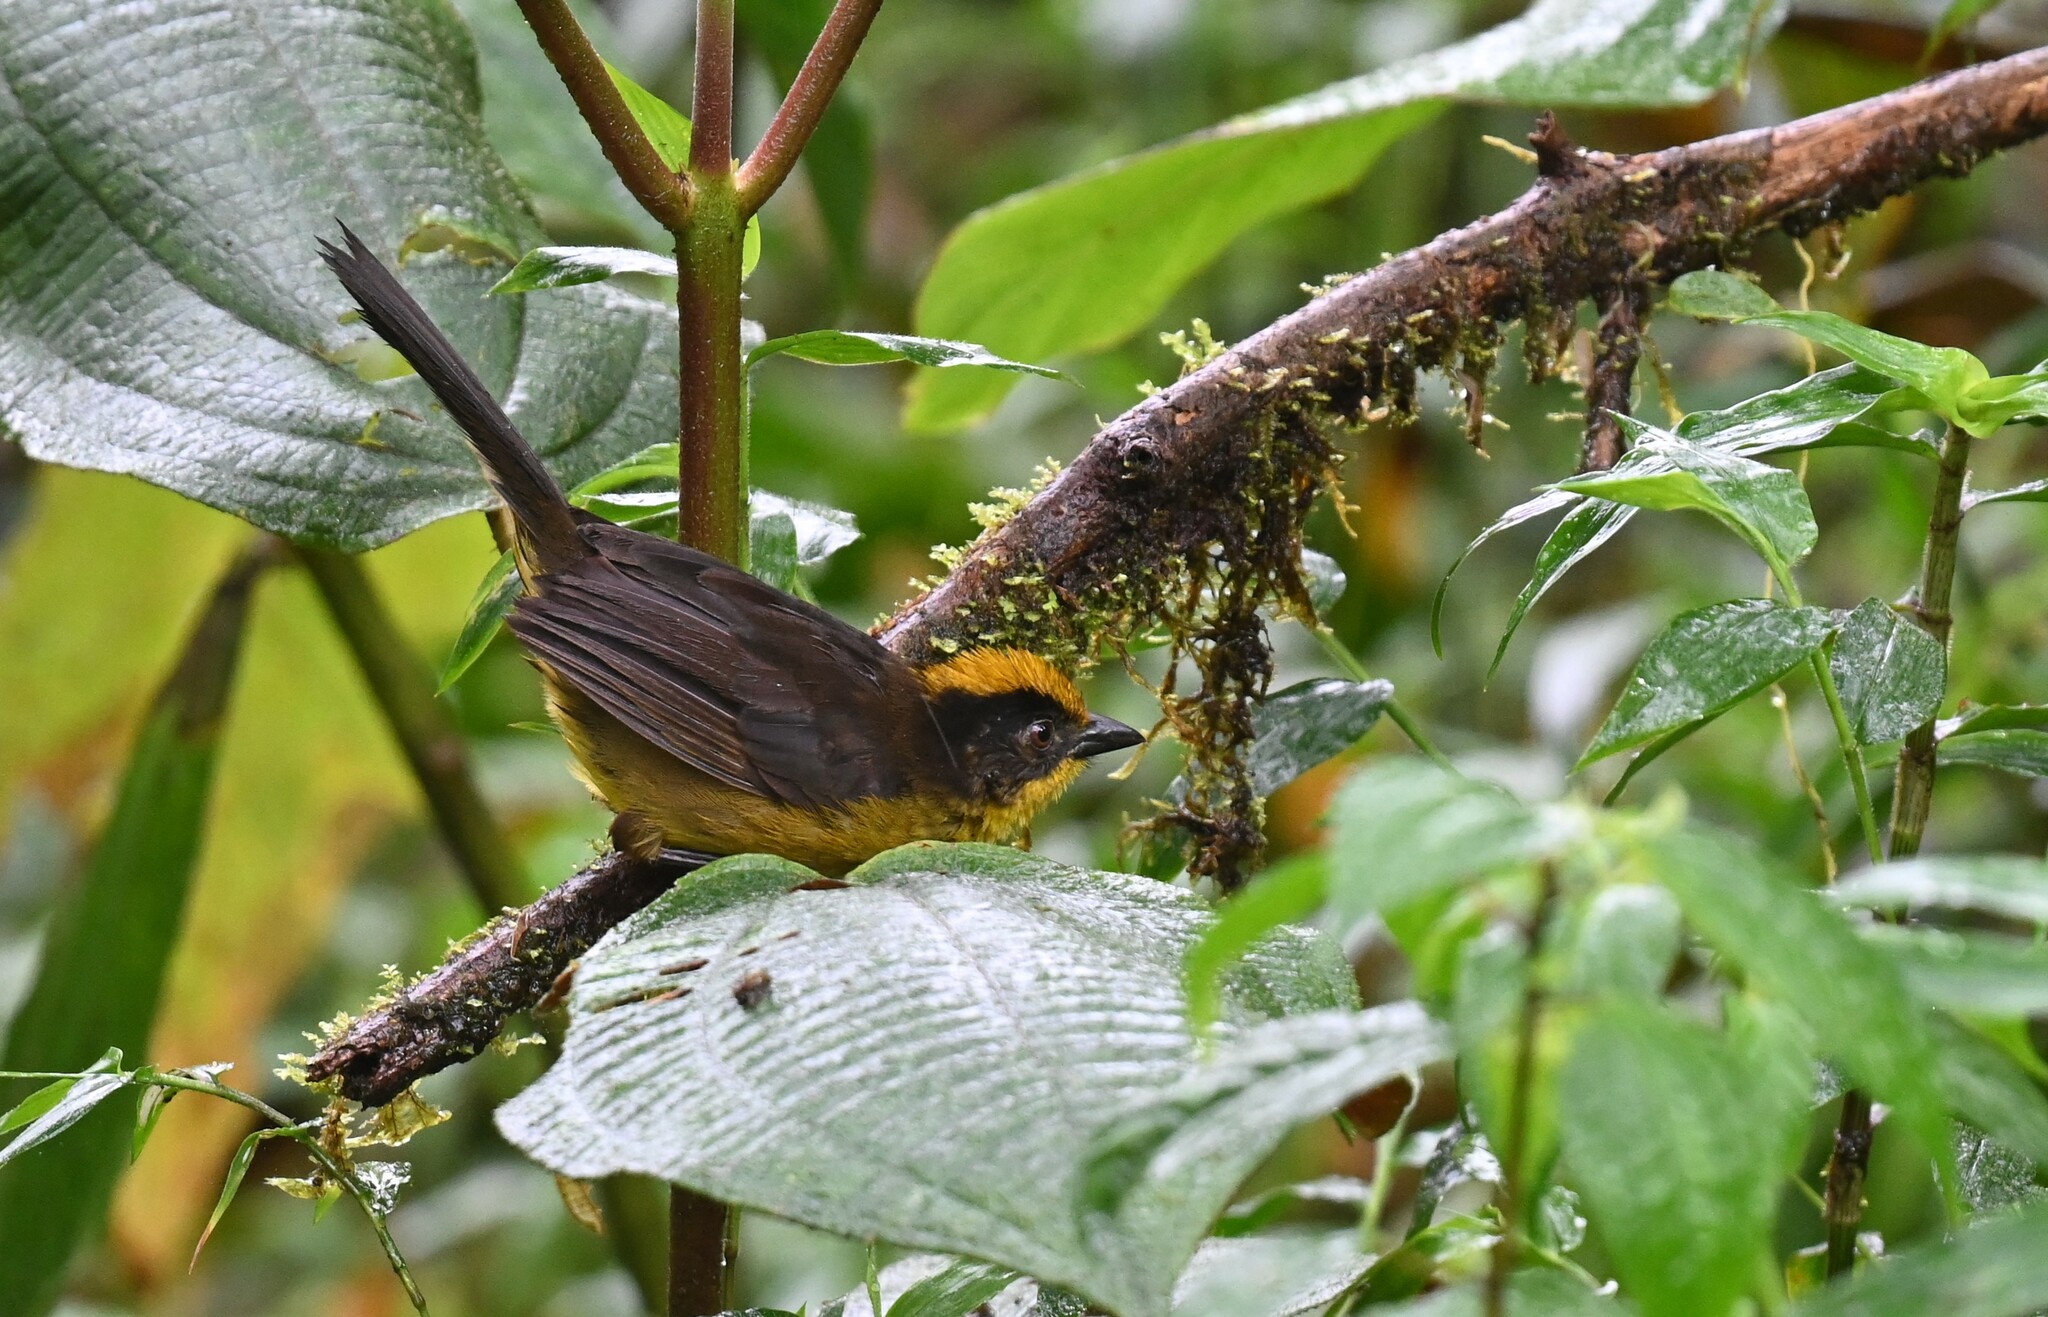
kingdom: Animalia
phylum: Chordata
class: Aves
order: Passeriformes
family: Passerellidae
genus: Atlapetes
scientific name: Atlapetes tricolor
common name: Tricolored brushfinch
